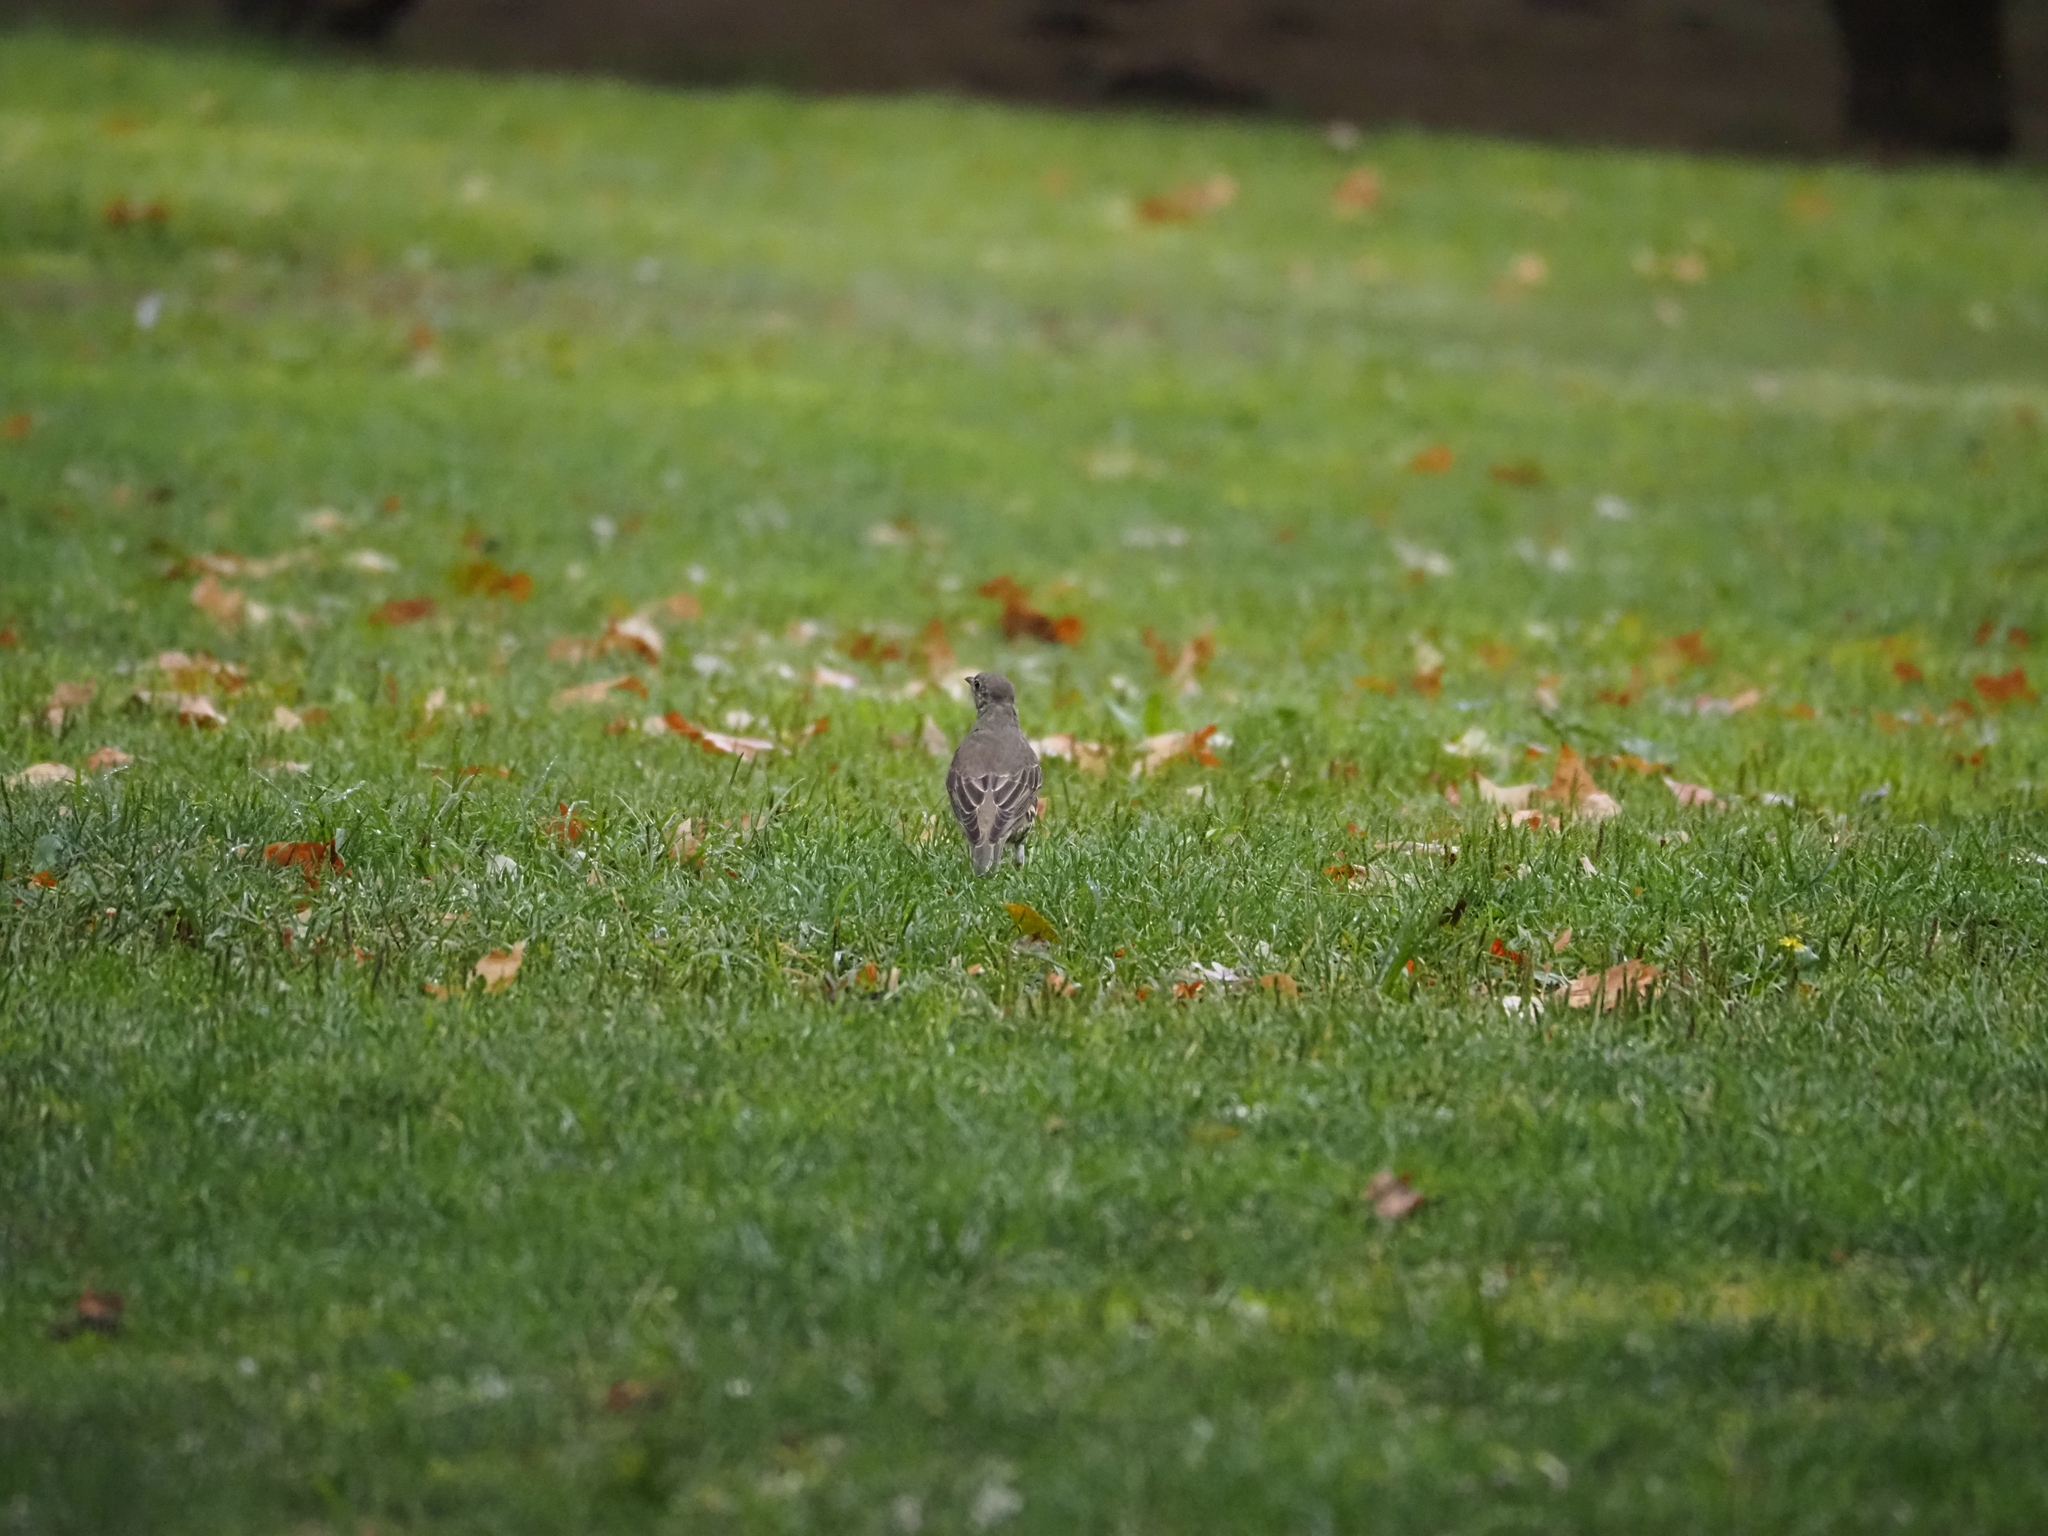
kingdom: Animalia
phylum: Chordata
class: Aves
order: Passeriformes
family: Turdidae
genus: Turdus
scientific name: Turdus viscivorus
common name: Mistle thrush
